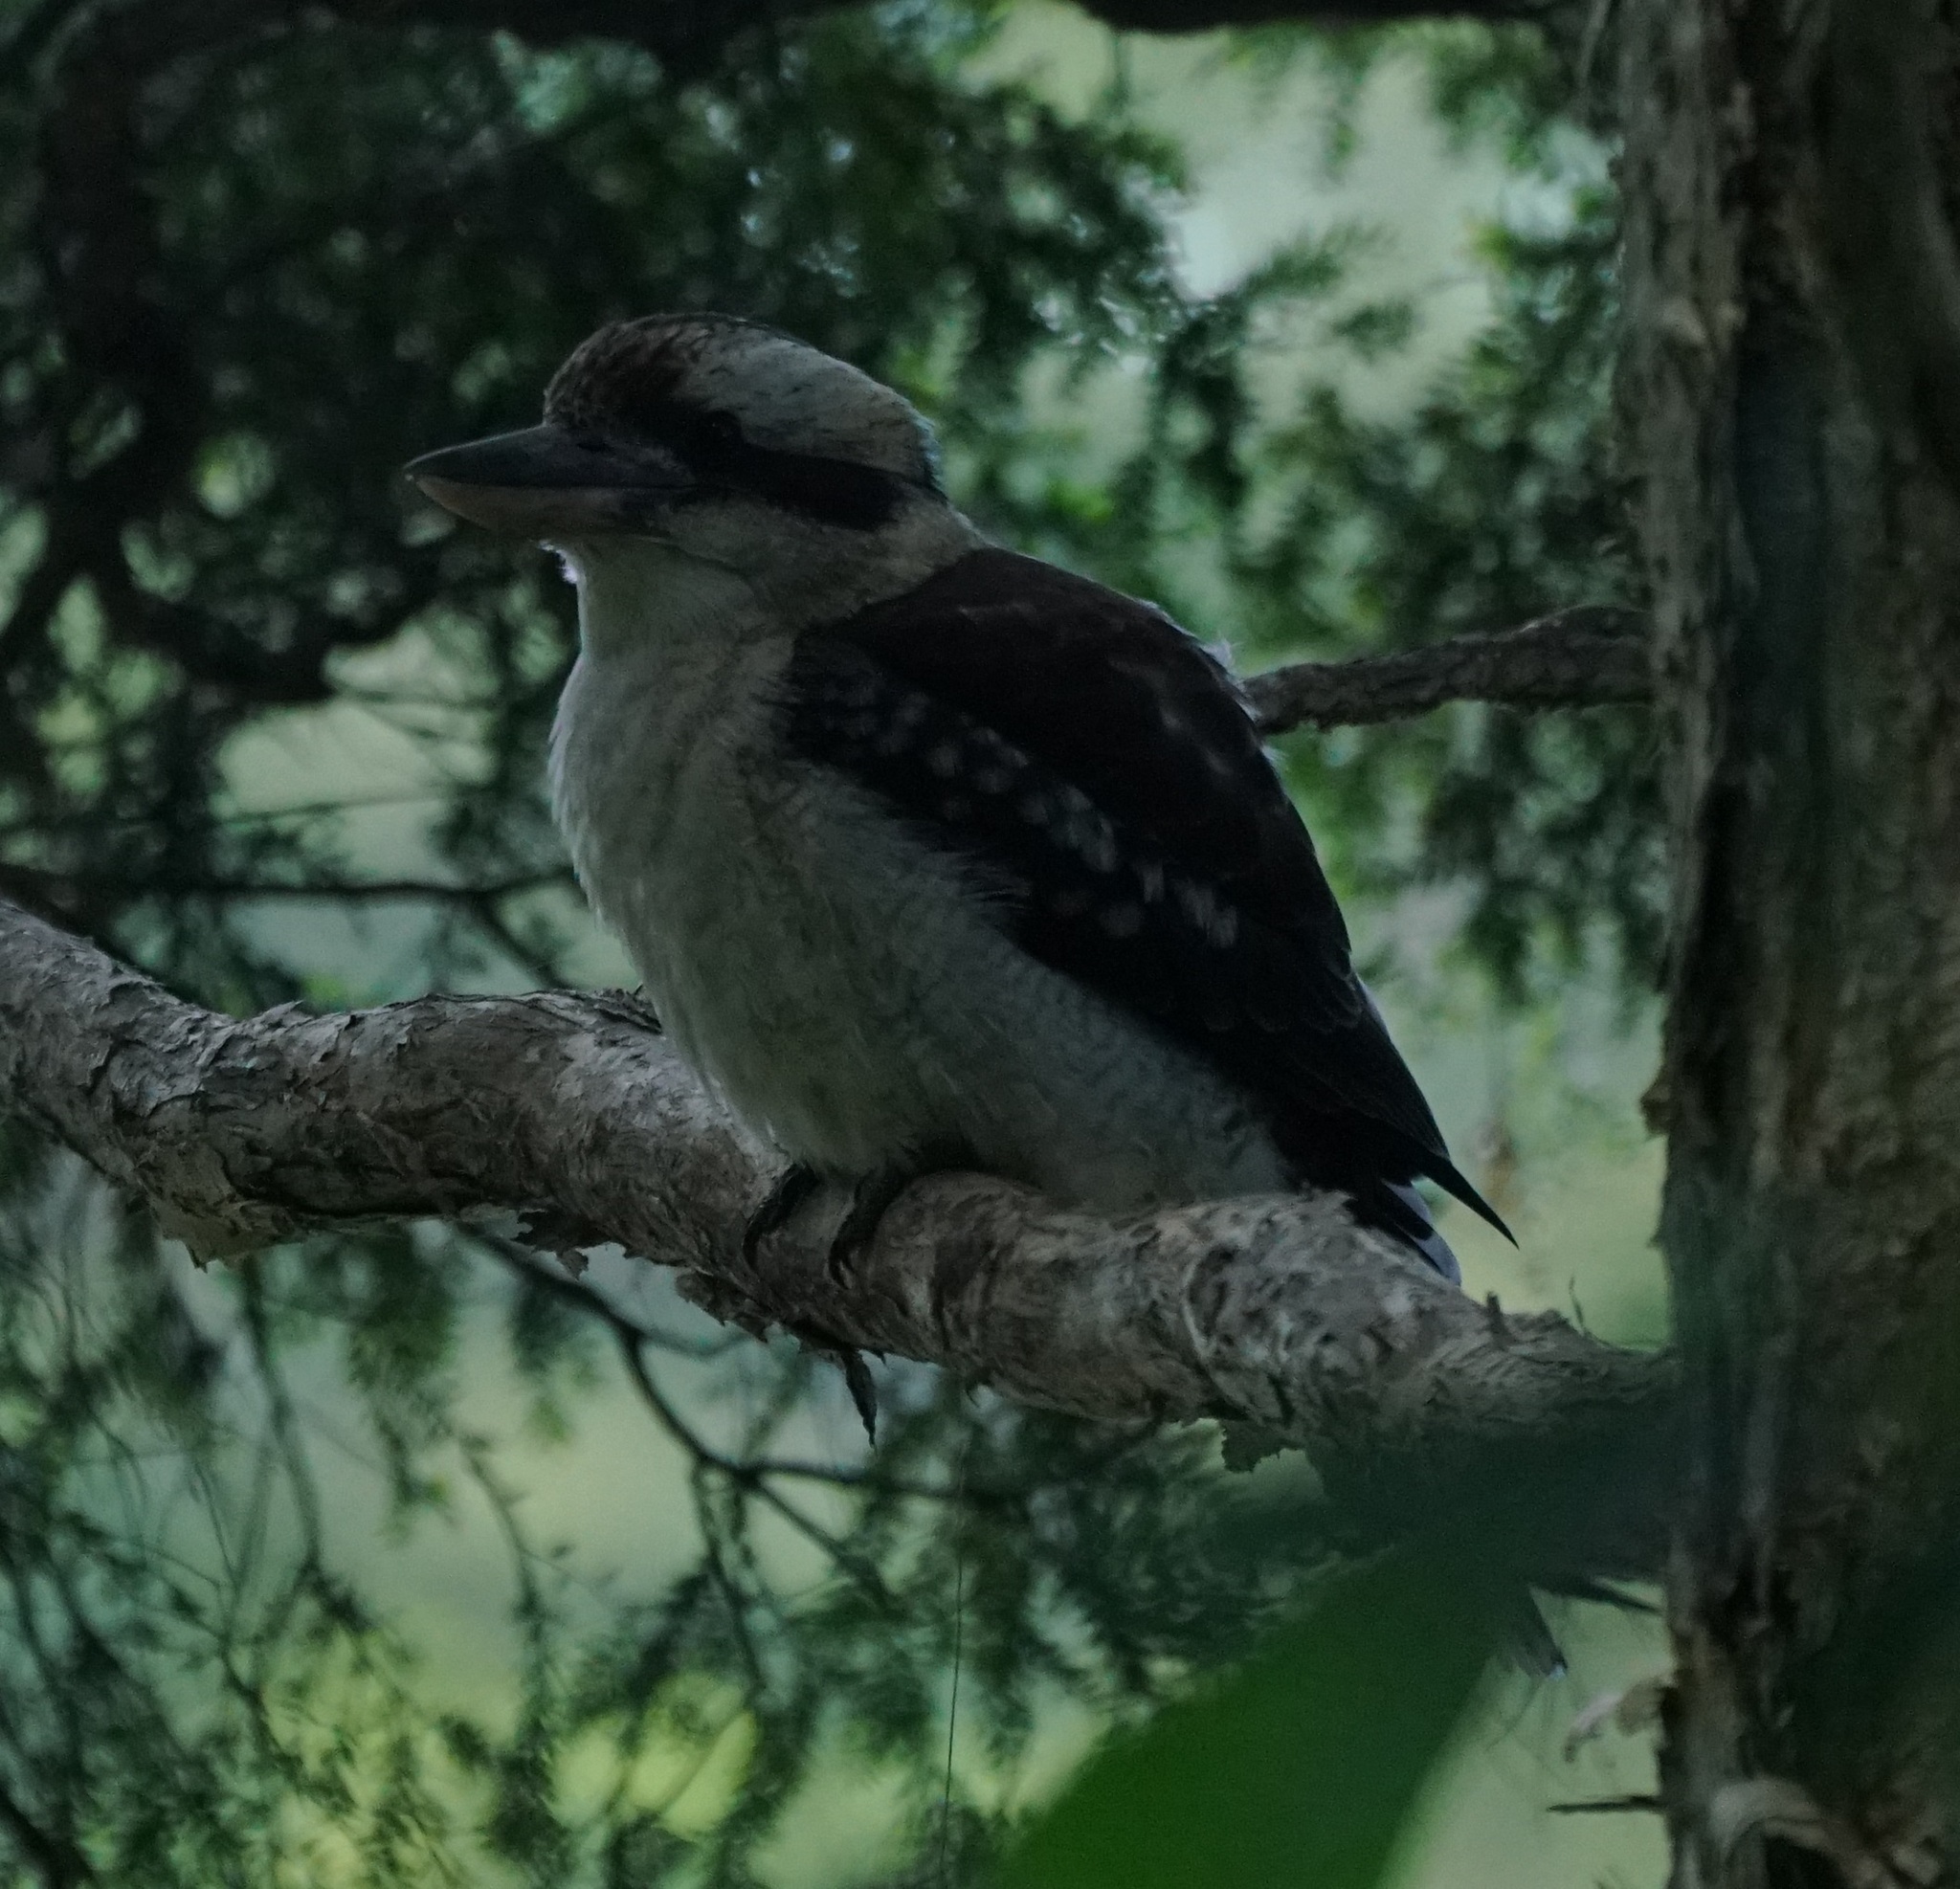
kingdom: Animalia
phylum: Chordata
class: Aves
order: Coraciiformes
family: Alcedinidae
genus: Dacelo
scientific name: Dacelo novaeguineae
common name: Laughing kookaburra
